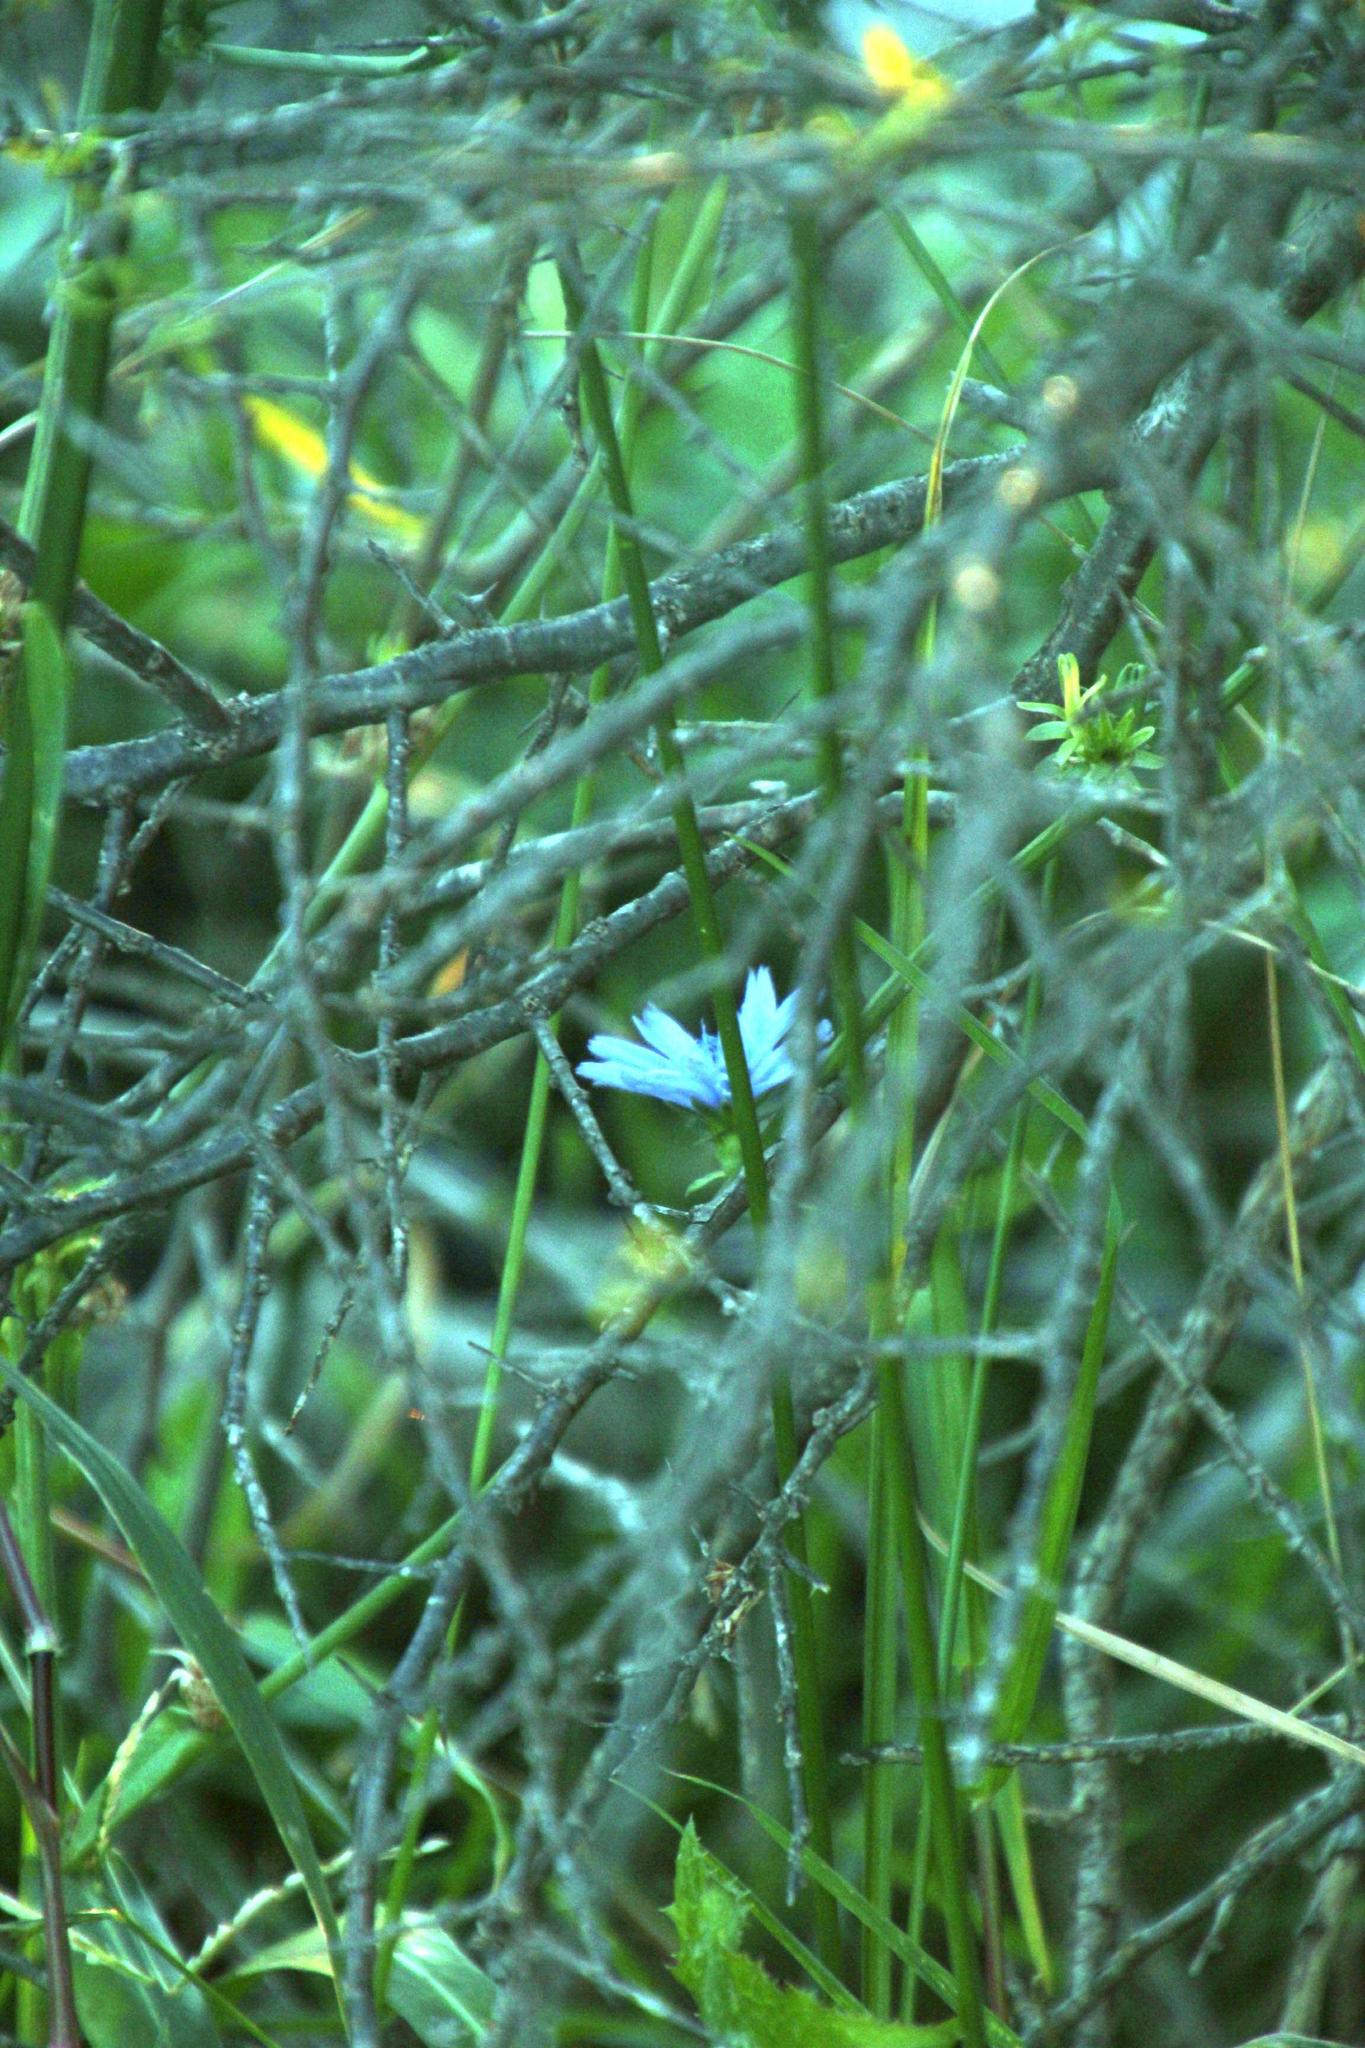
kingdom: Plantae
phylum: Tracheophyta
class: Magnoliopsida
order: Asterales
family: Asteraceae
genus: Cichorium
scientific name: Cichorium intybus
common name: Chicory
